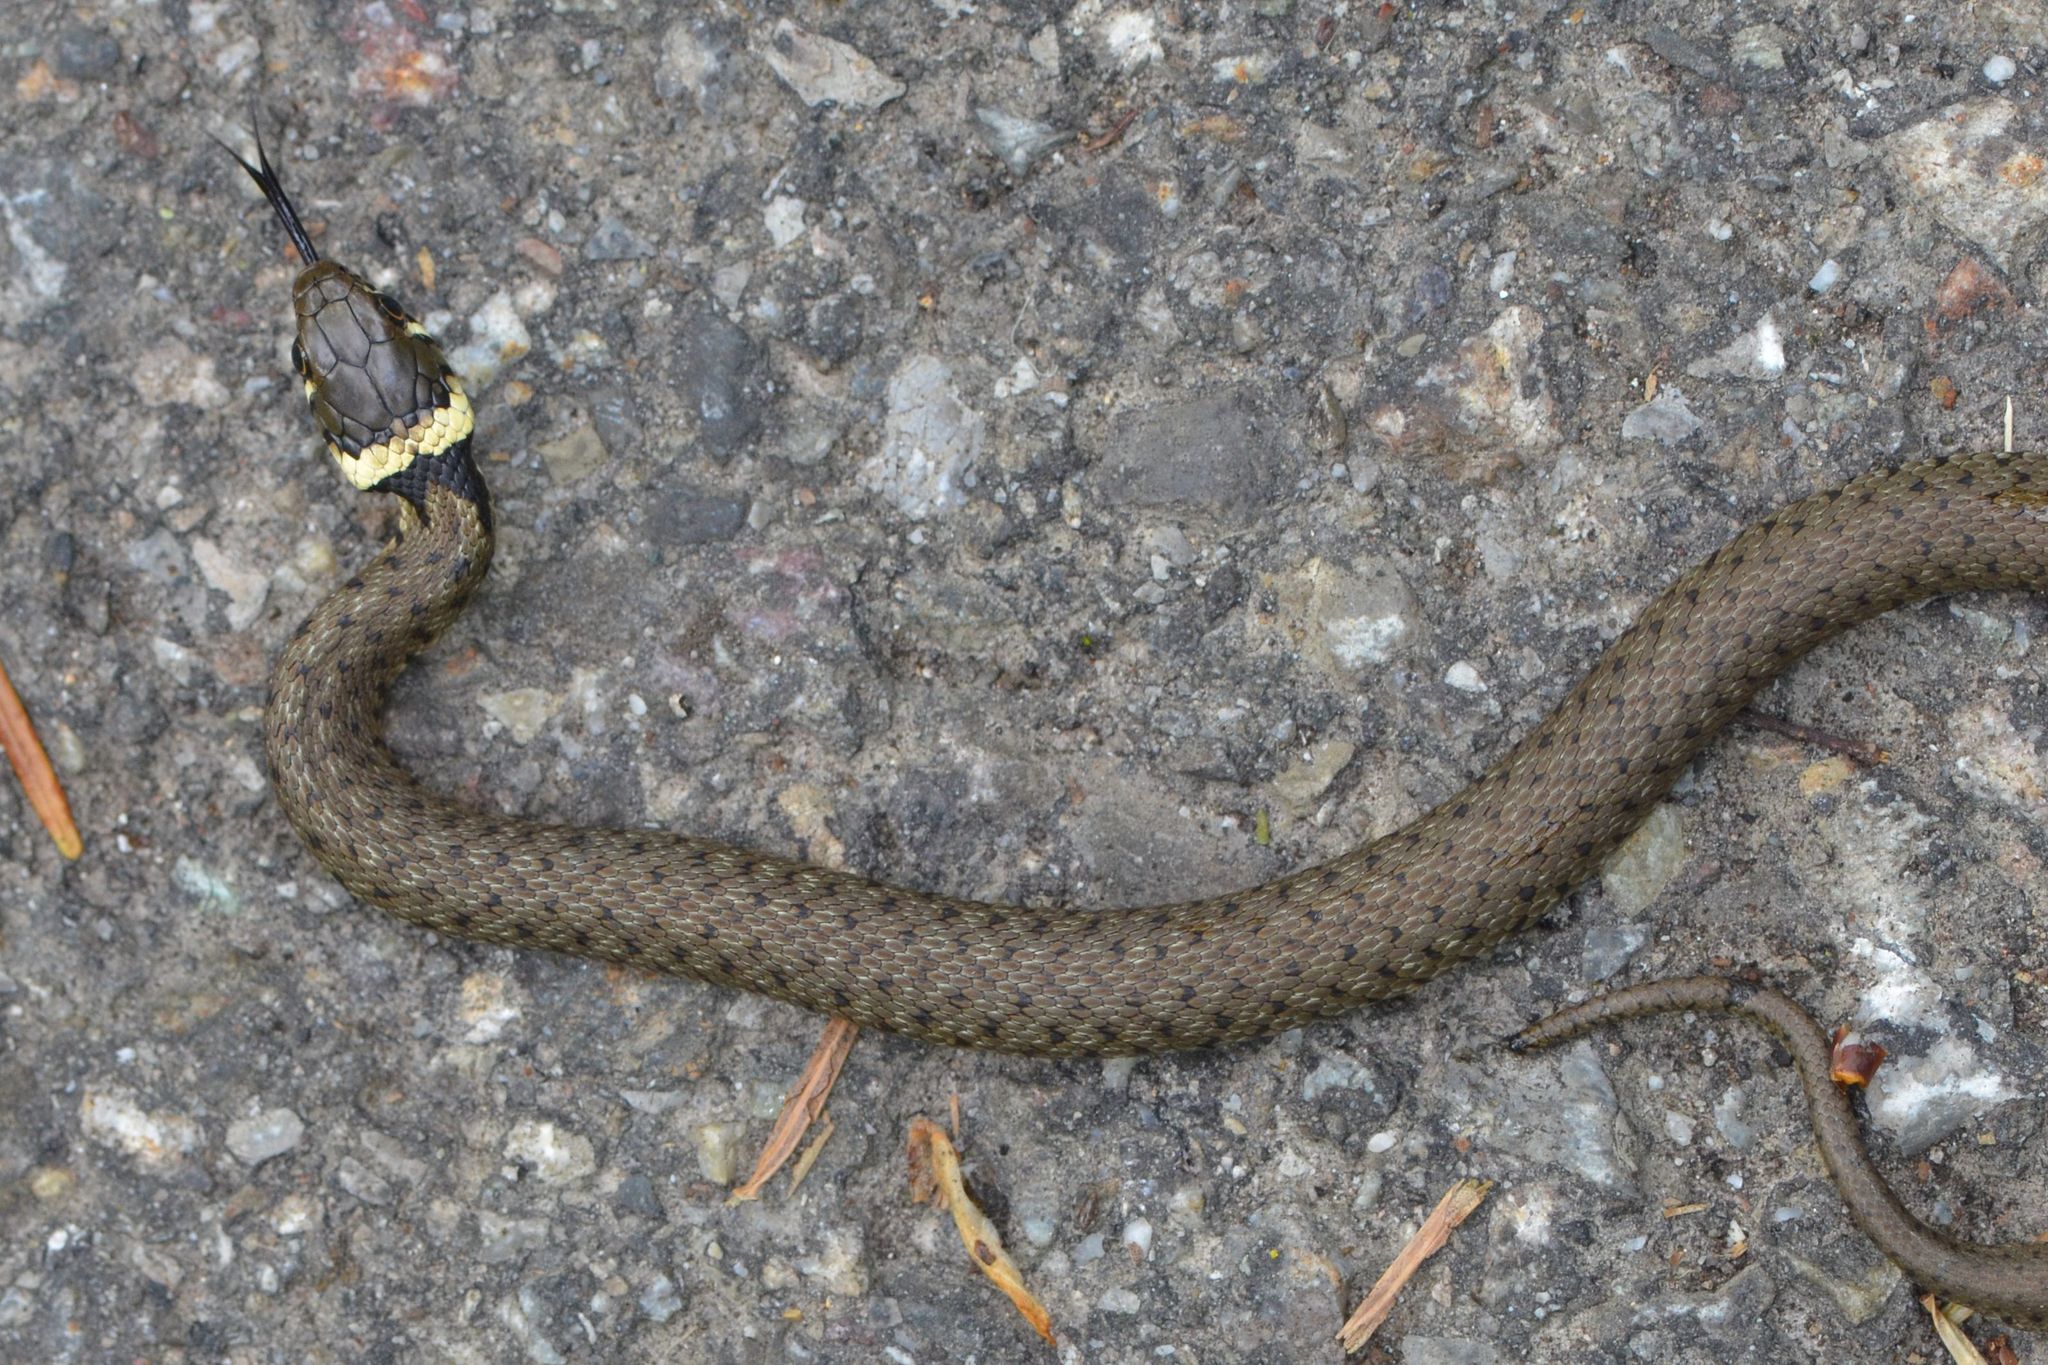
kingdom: Animalia
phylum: Chordata
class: Squamata
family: Colubridae
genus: Natrix
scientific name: Natrix helvetica
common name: Banded grass snake
